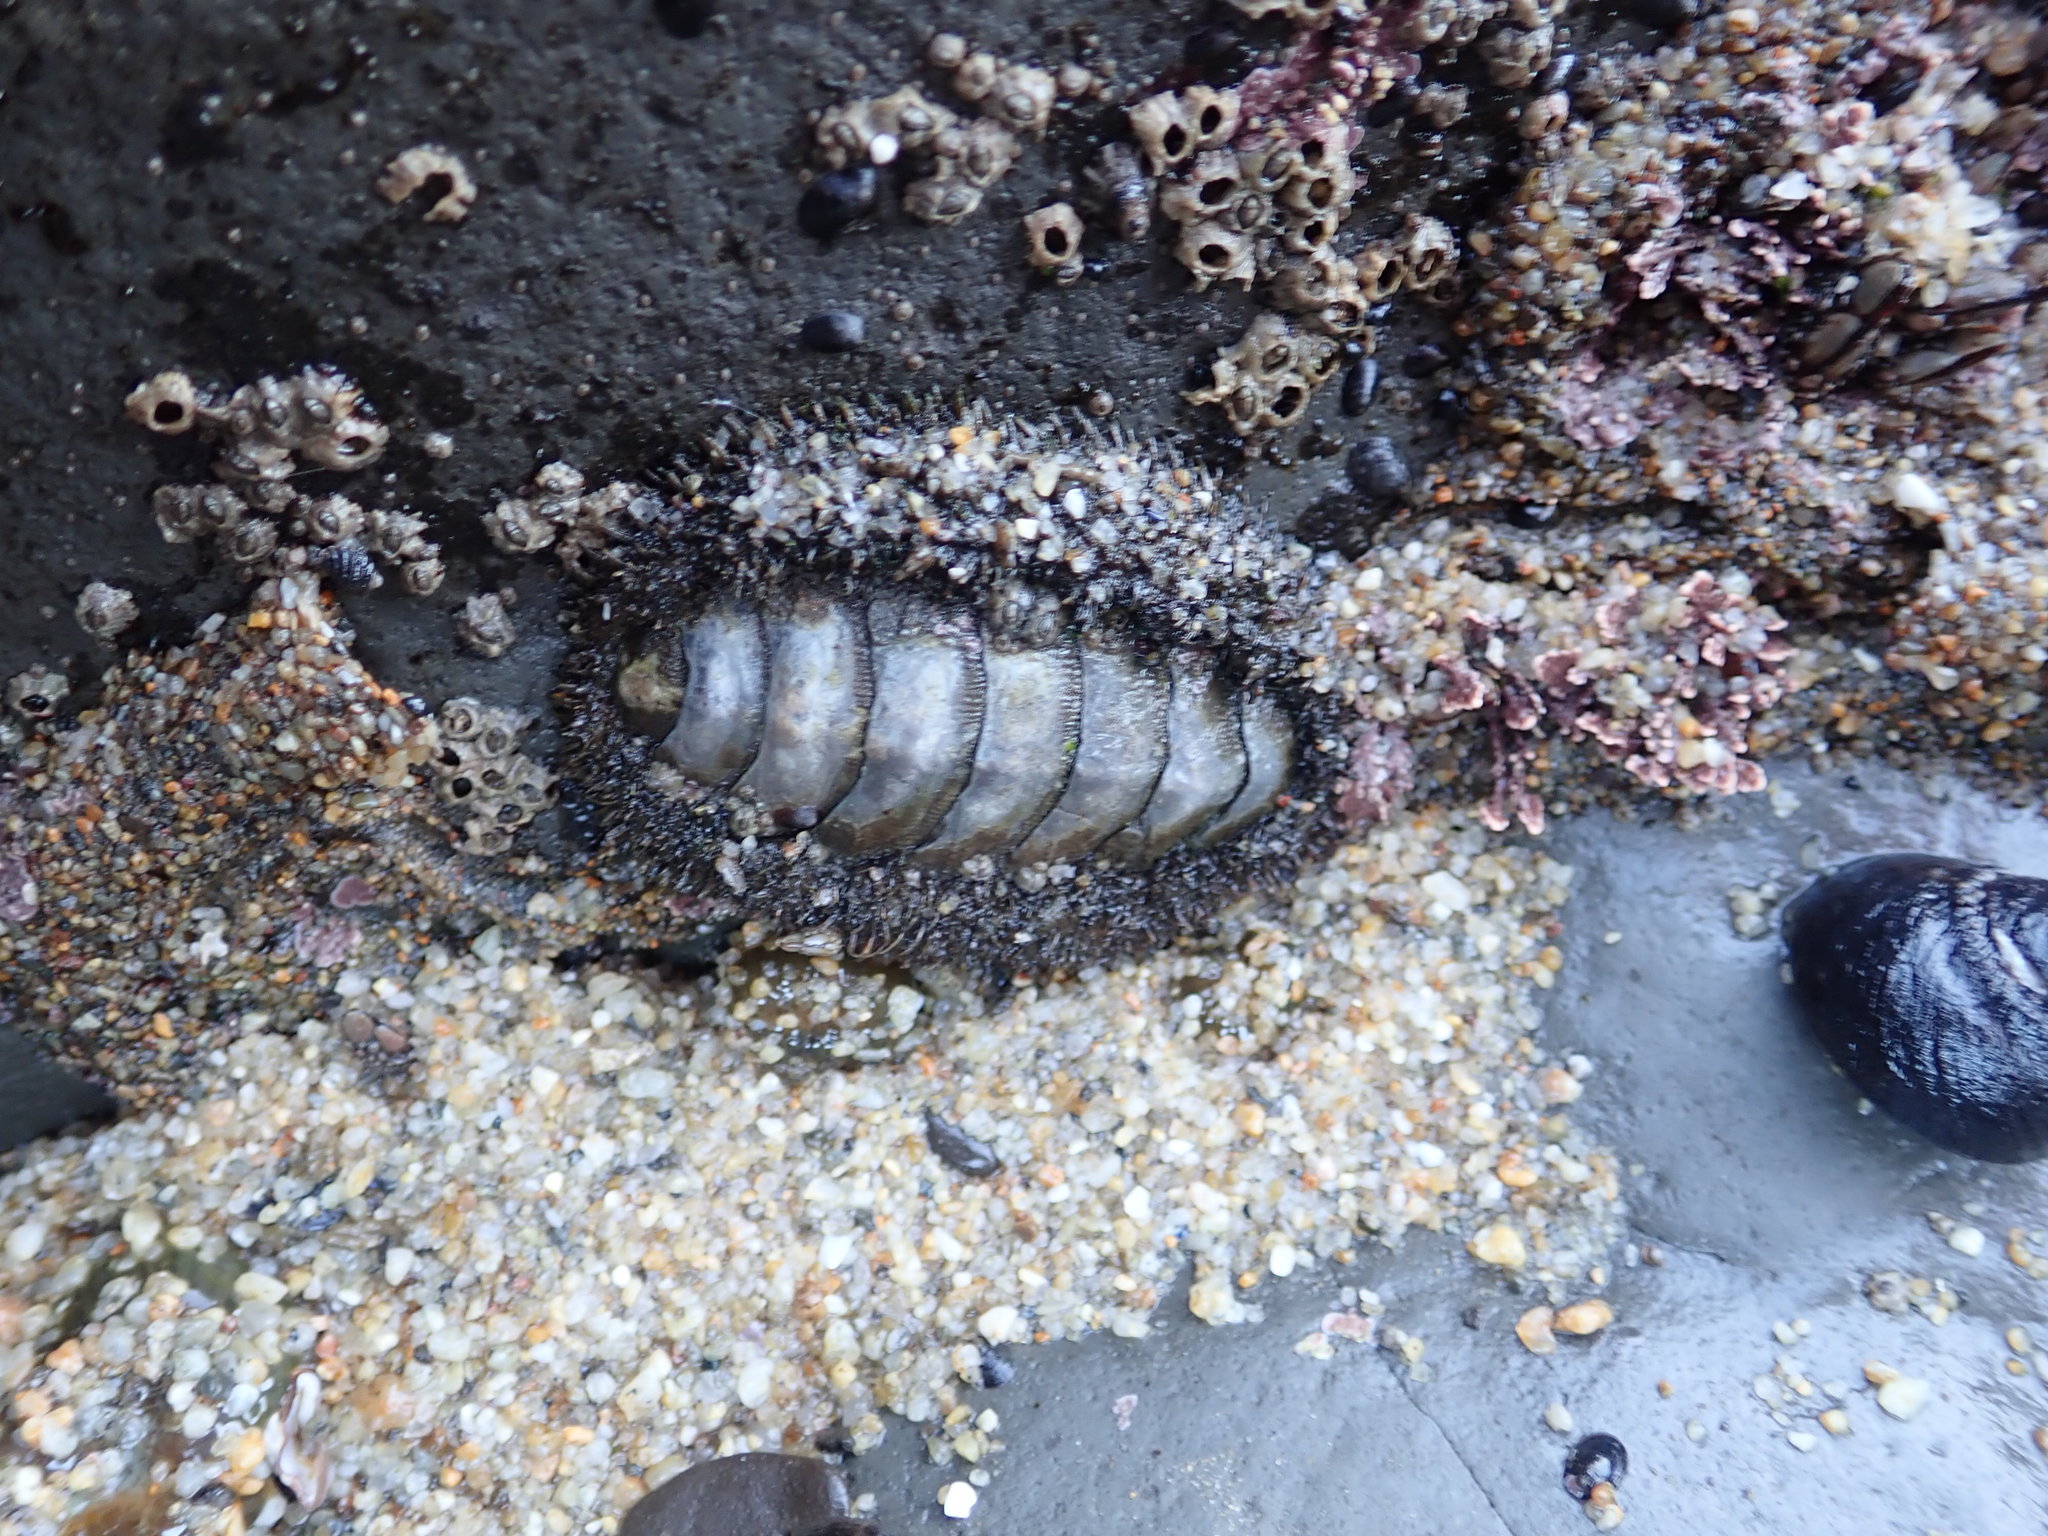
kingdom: Animalia
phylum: Mollusca
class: Polyplacophora
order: Chitonida
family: Mopaliidae
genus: Mopalia
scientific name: Mopalia muscosa
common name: Mossy chiton
